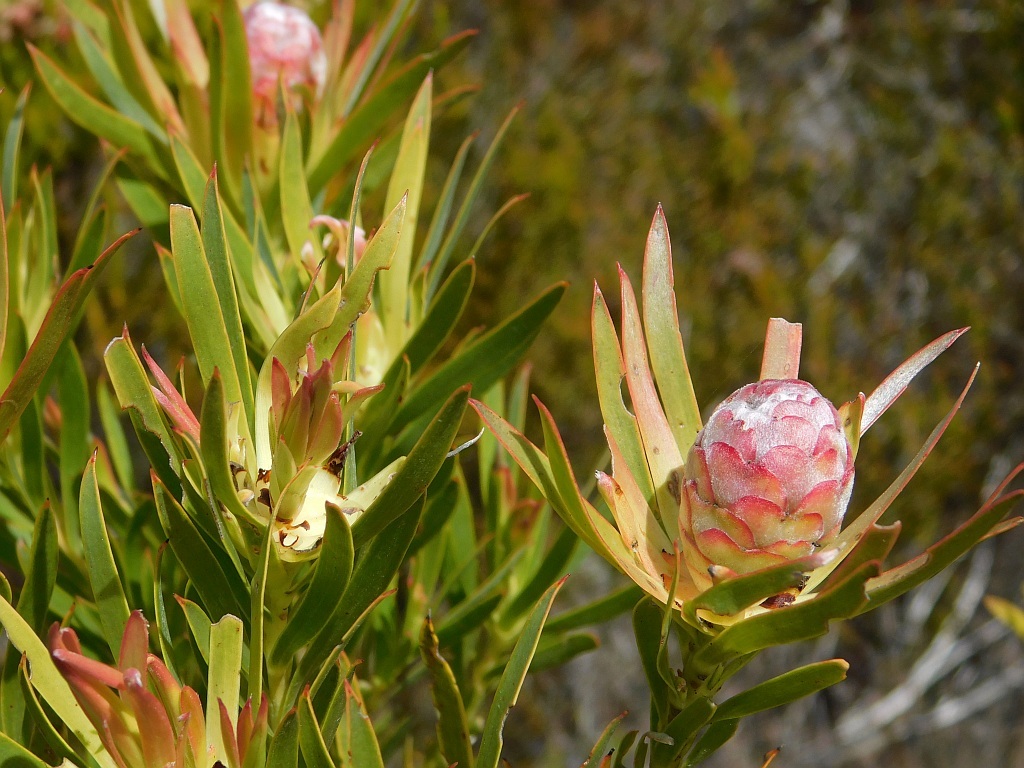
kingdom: Plantae
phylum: Tracheophyta
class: Magnoliopsida
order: Proteales
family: Proteaceae
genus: Leucadendron
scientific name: Leucadendron xanthoconus
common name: Sickle-leaf conebush
